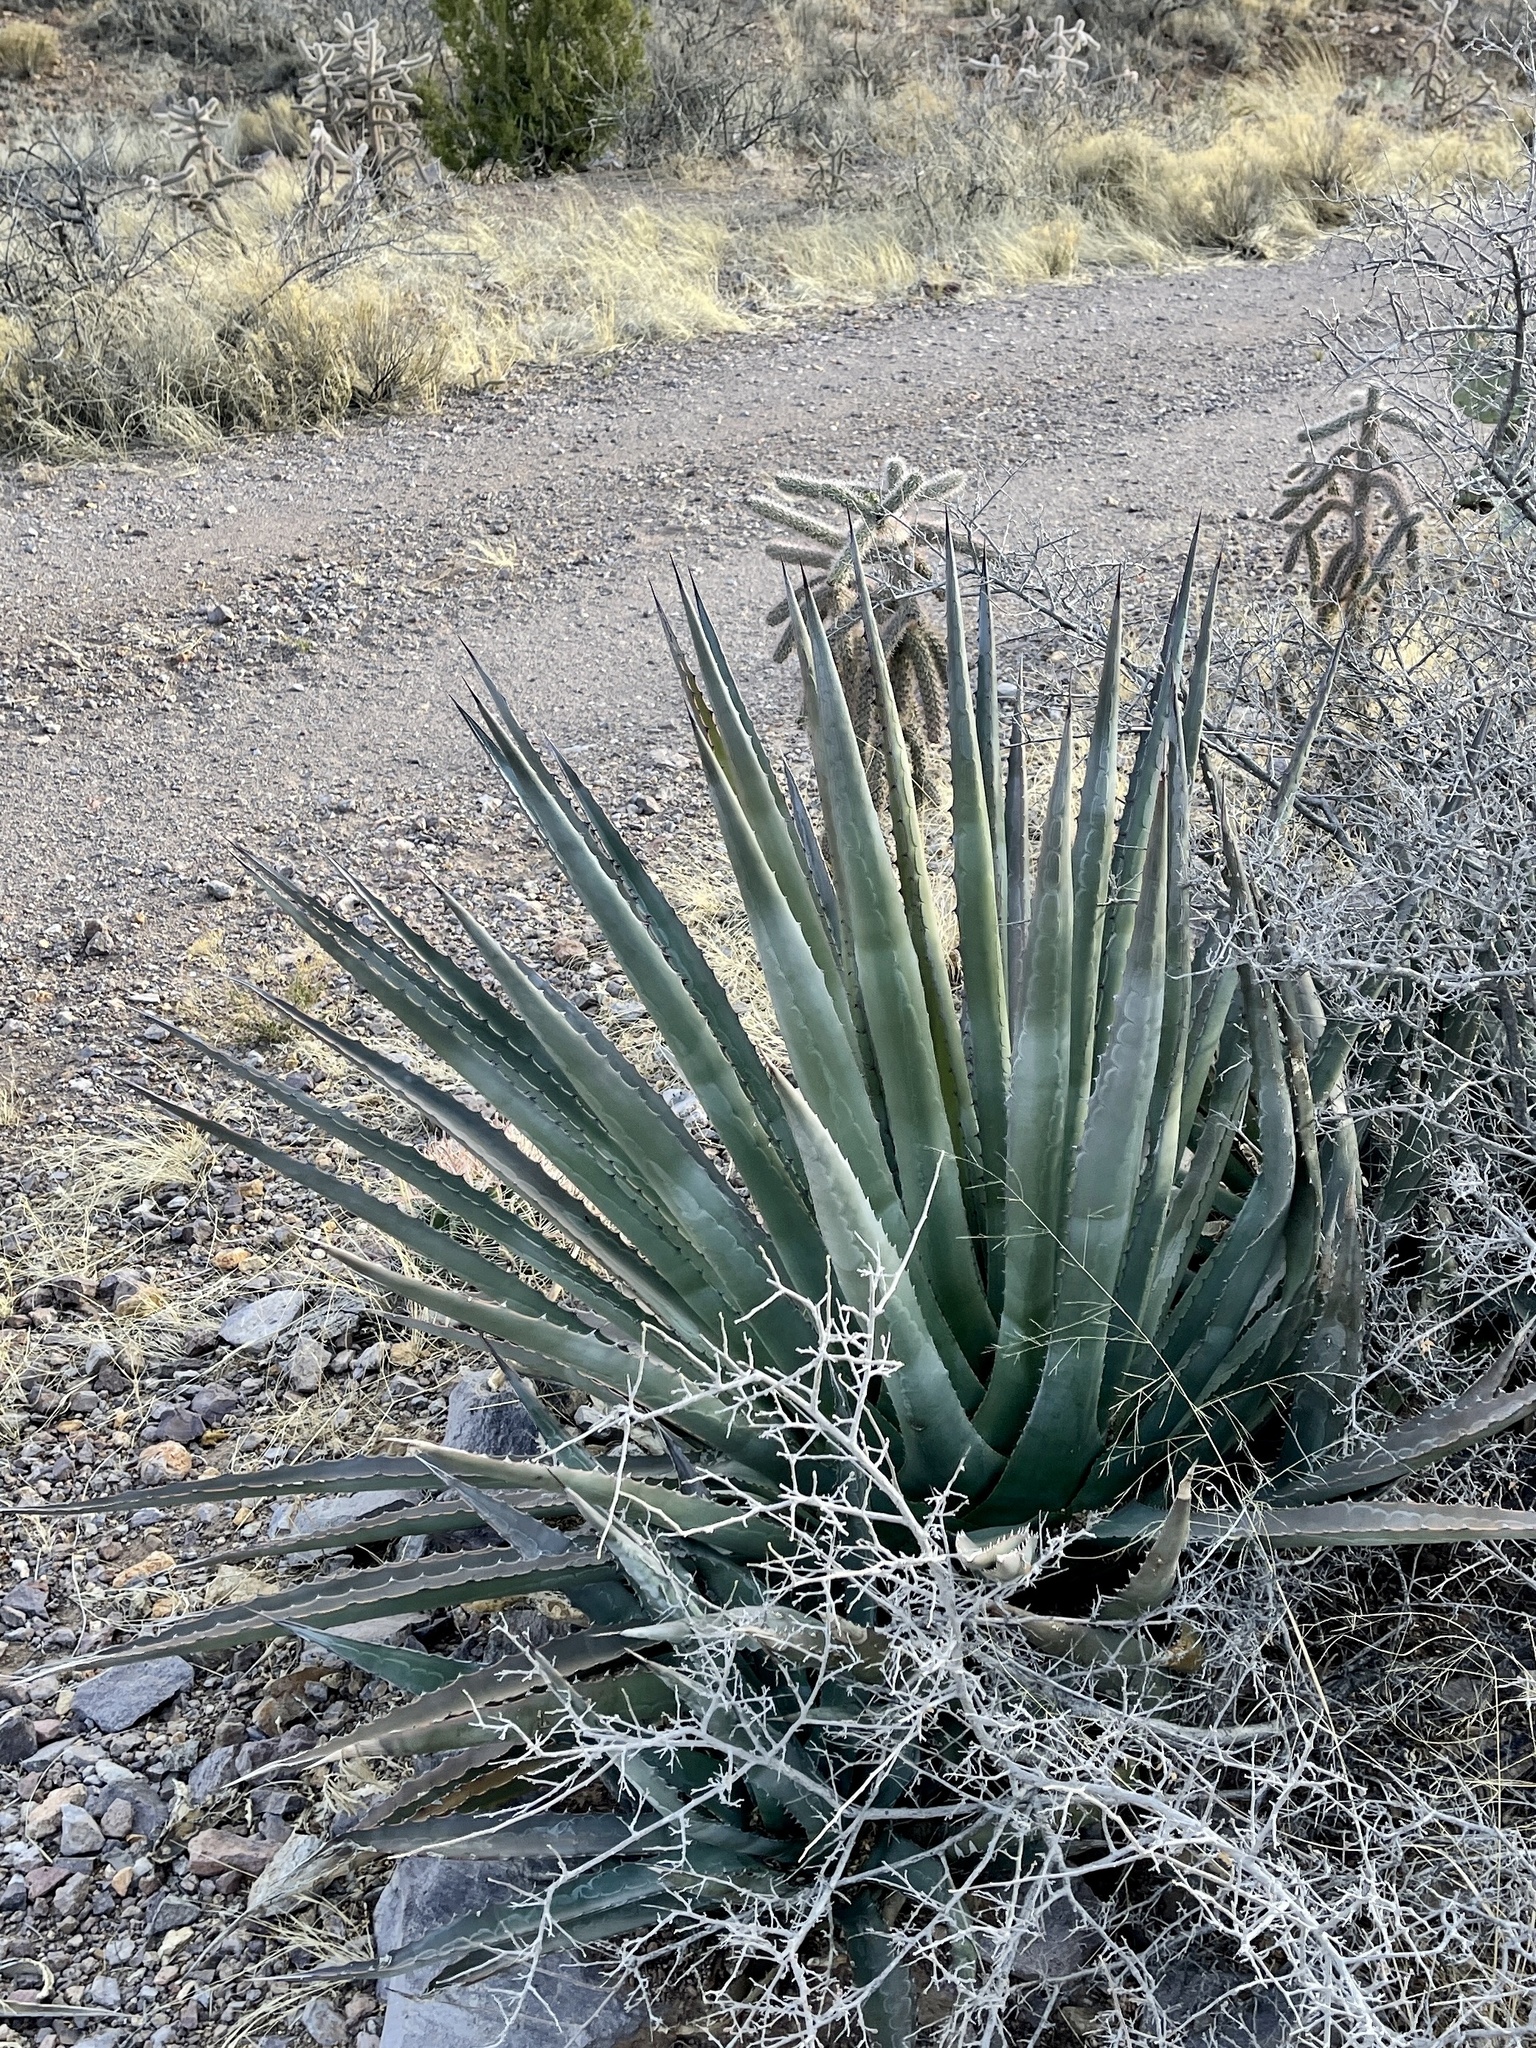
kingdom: Plantae
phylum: Tracheophyta
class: Liliopsida
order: Asparagales
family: Asparagaceae
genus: Agave
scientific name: Agave palmeri
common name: Palmer agave
